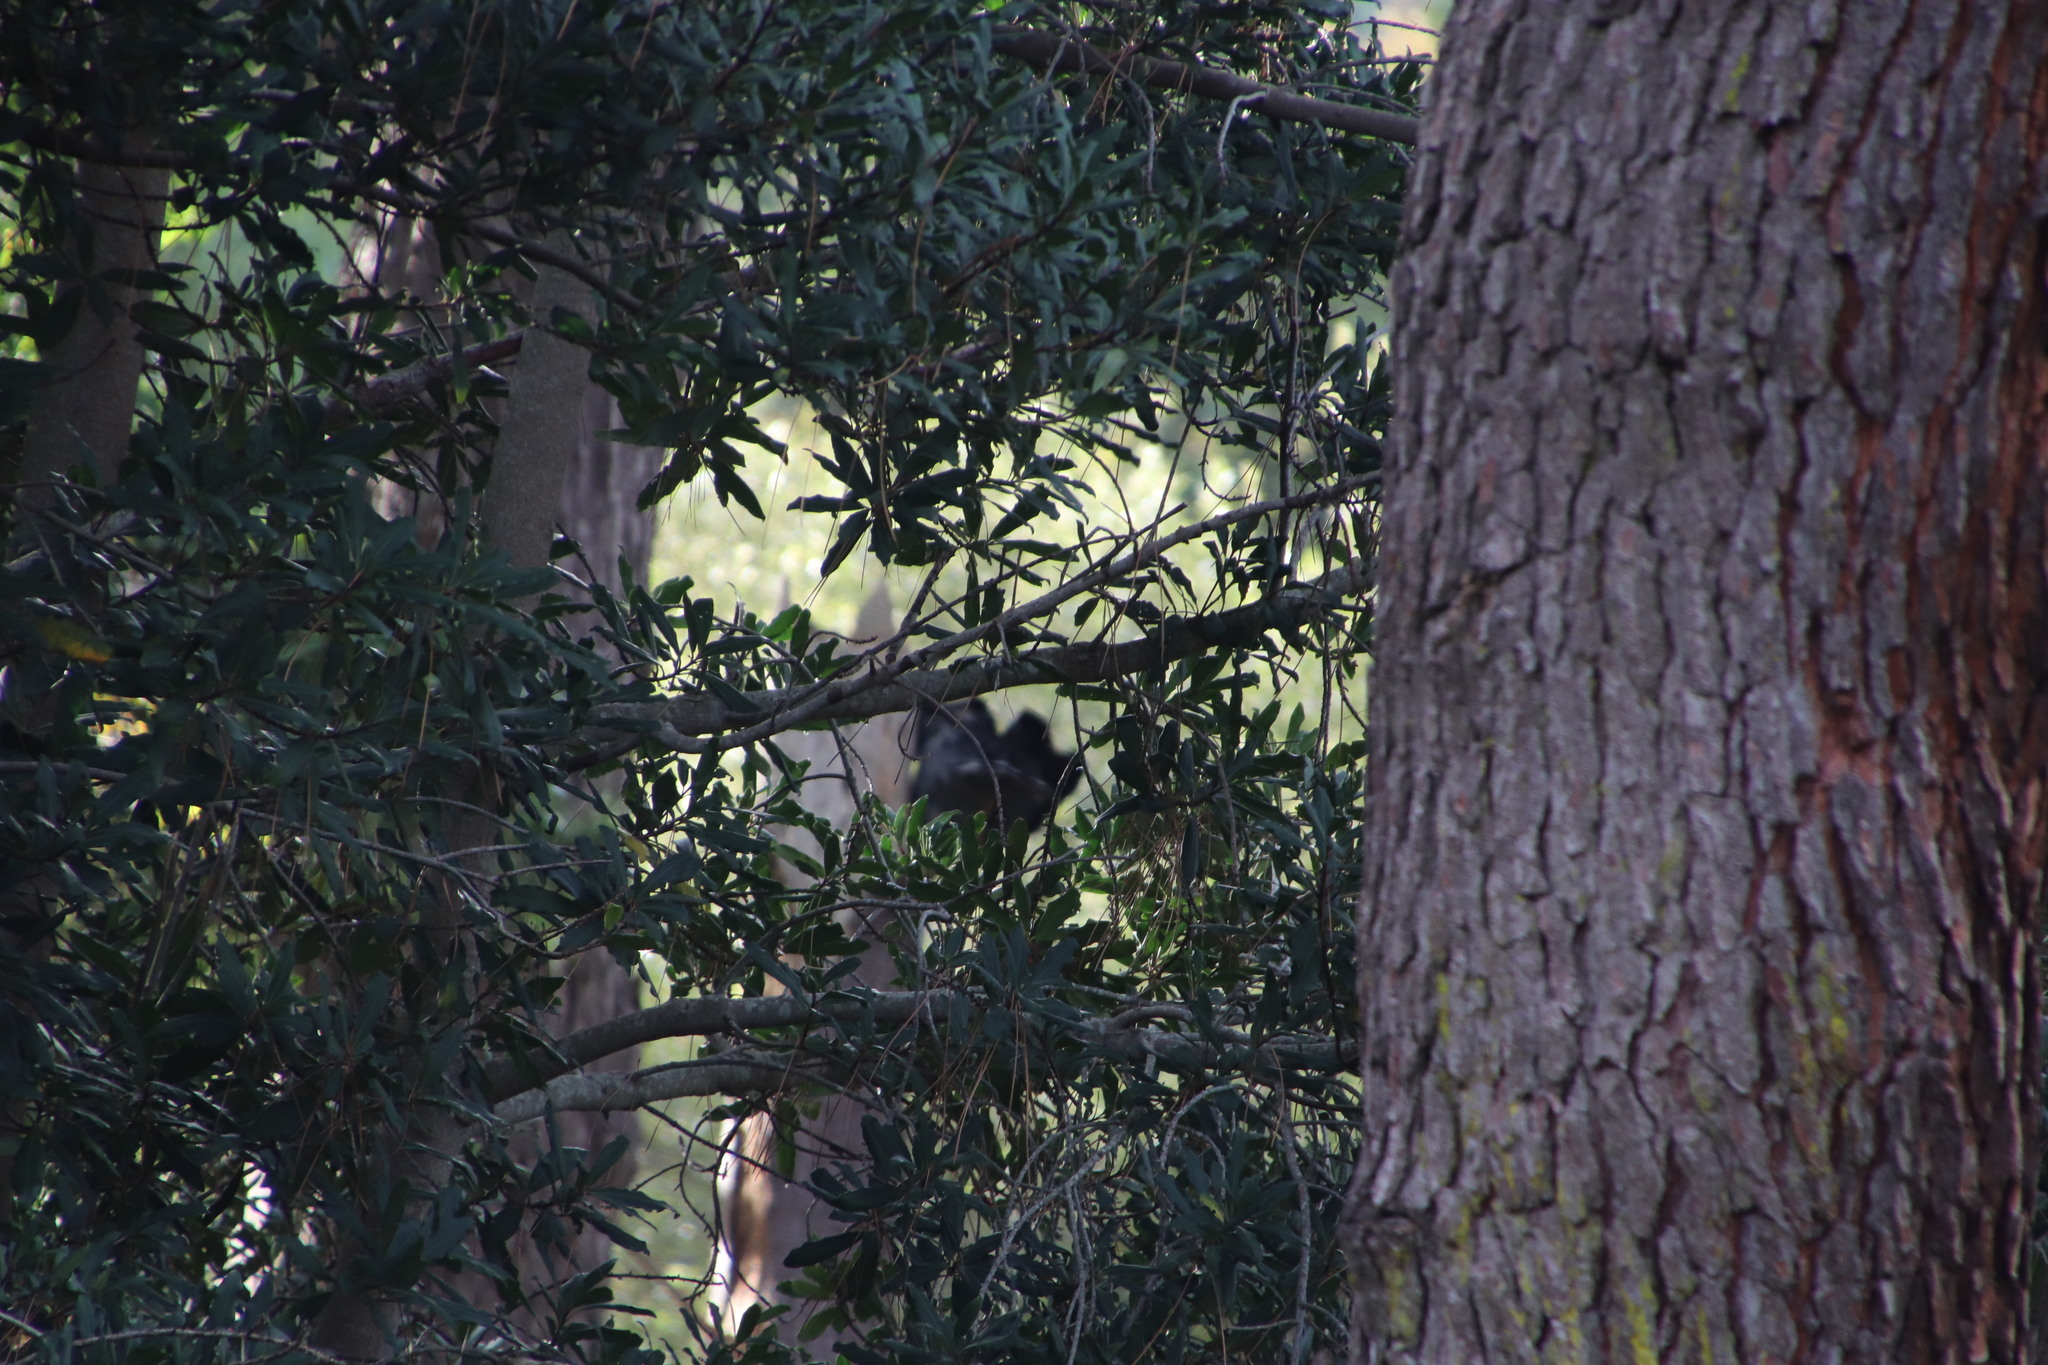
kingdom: Animalia
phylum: Chordata
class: Aves
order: Accipitriformes
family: Accipitridae
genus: Polyboroides
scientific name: Polyboroides typus
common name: African harrier-hawk
